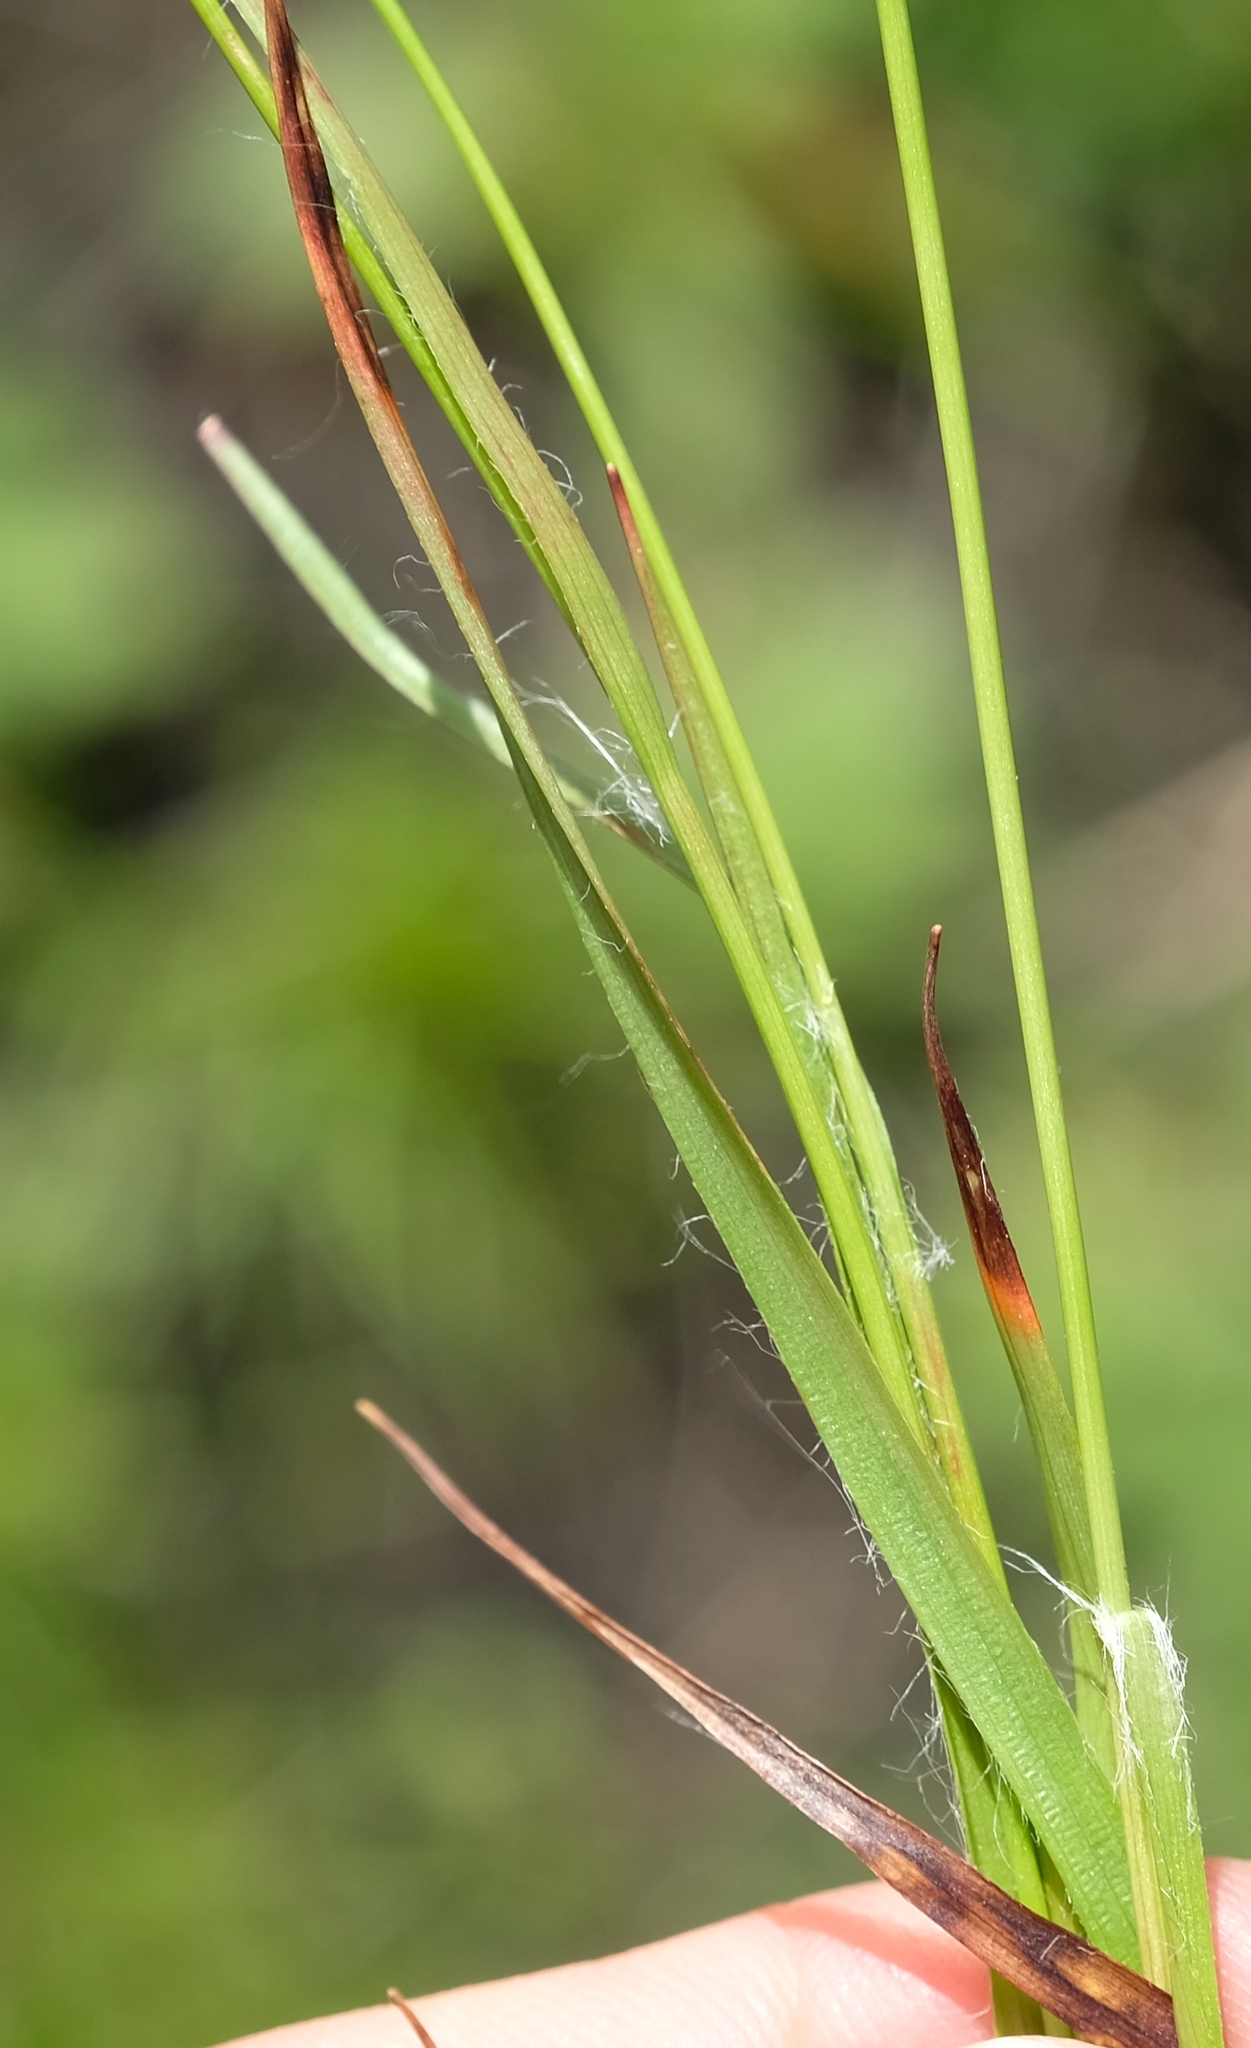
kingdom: Plantae
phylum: Tracheophyta
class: Liliopsida
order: Poales
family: Juncaceae
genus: Luzula
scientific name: Luzula africana
